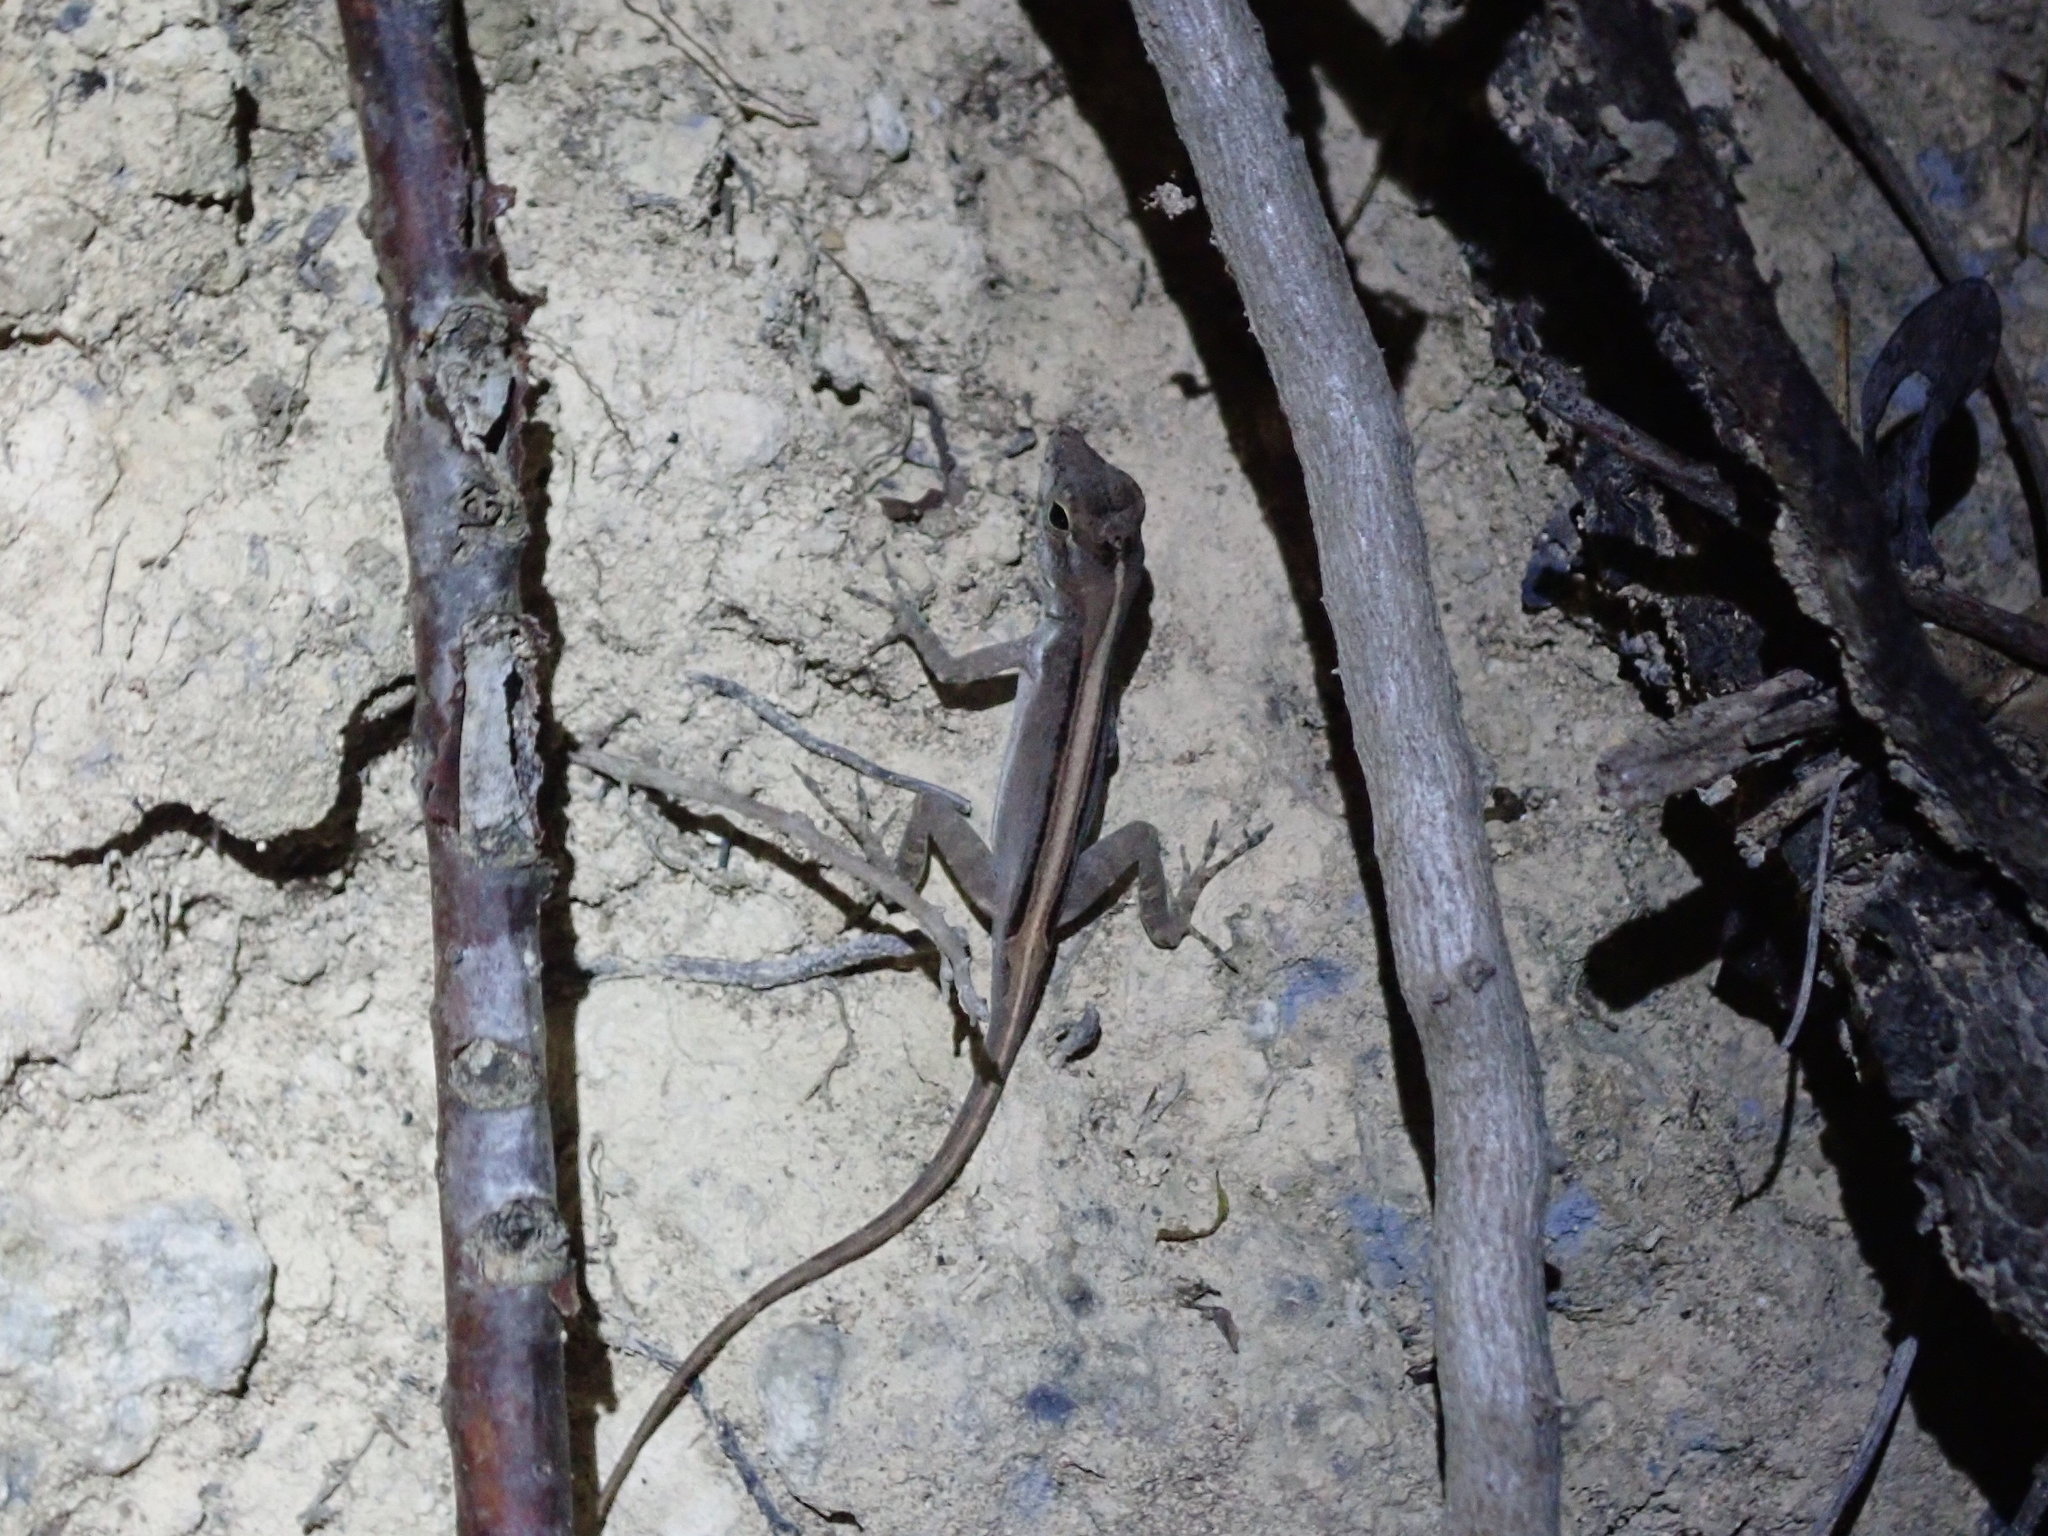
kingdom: Animalia
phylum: Chordata
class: Squamata
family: Dactyloidae
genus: Anolis
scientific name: Anolis cristatellus
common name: Crested anole
